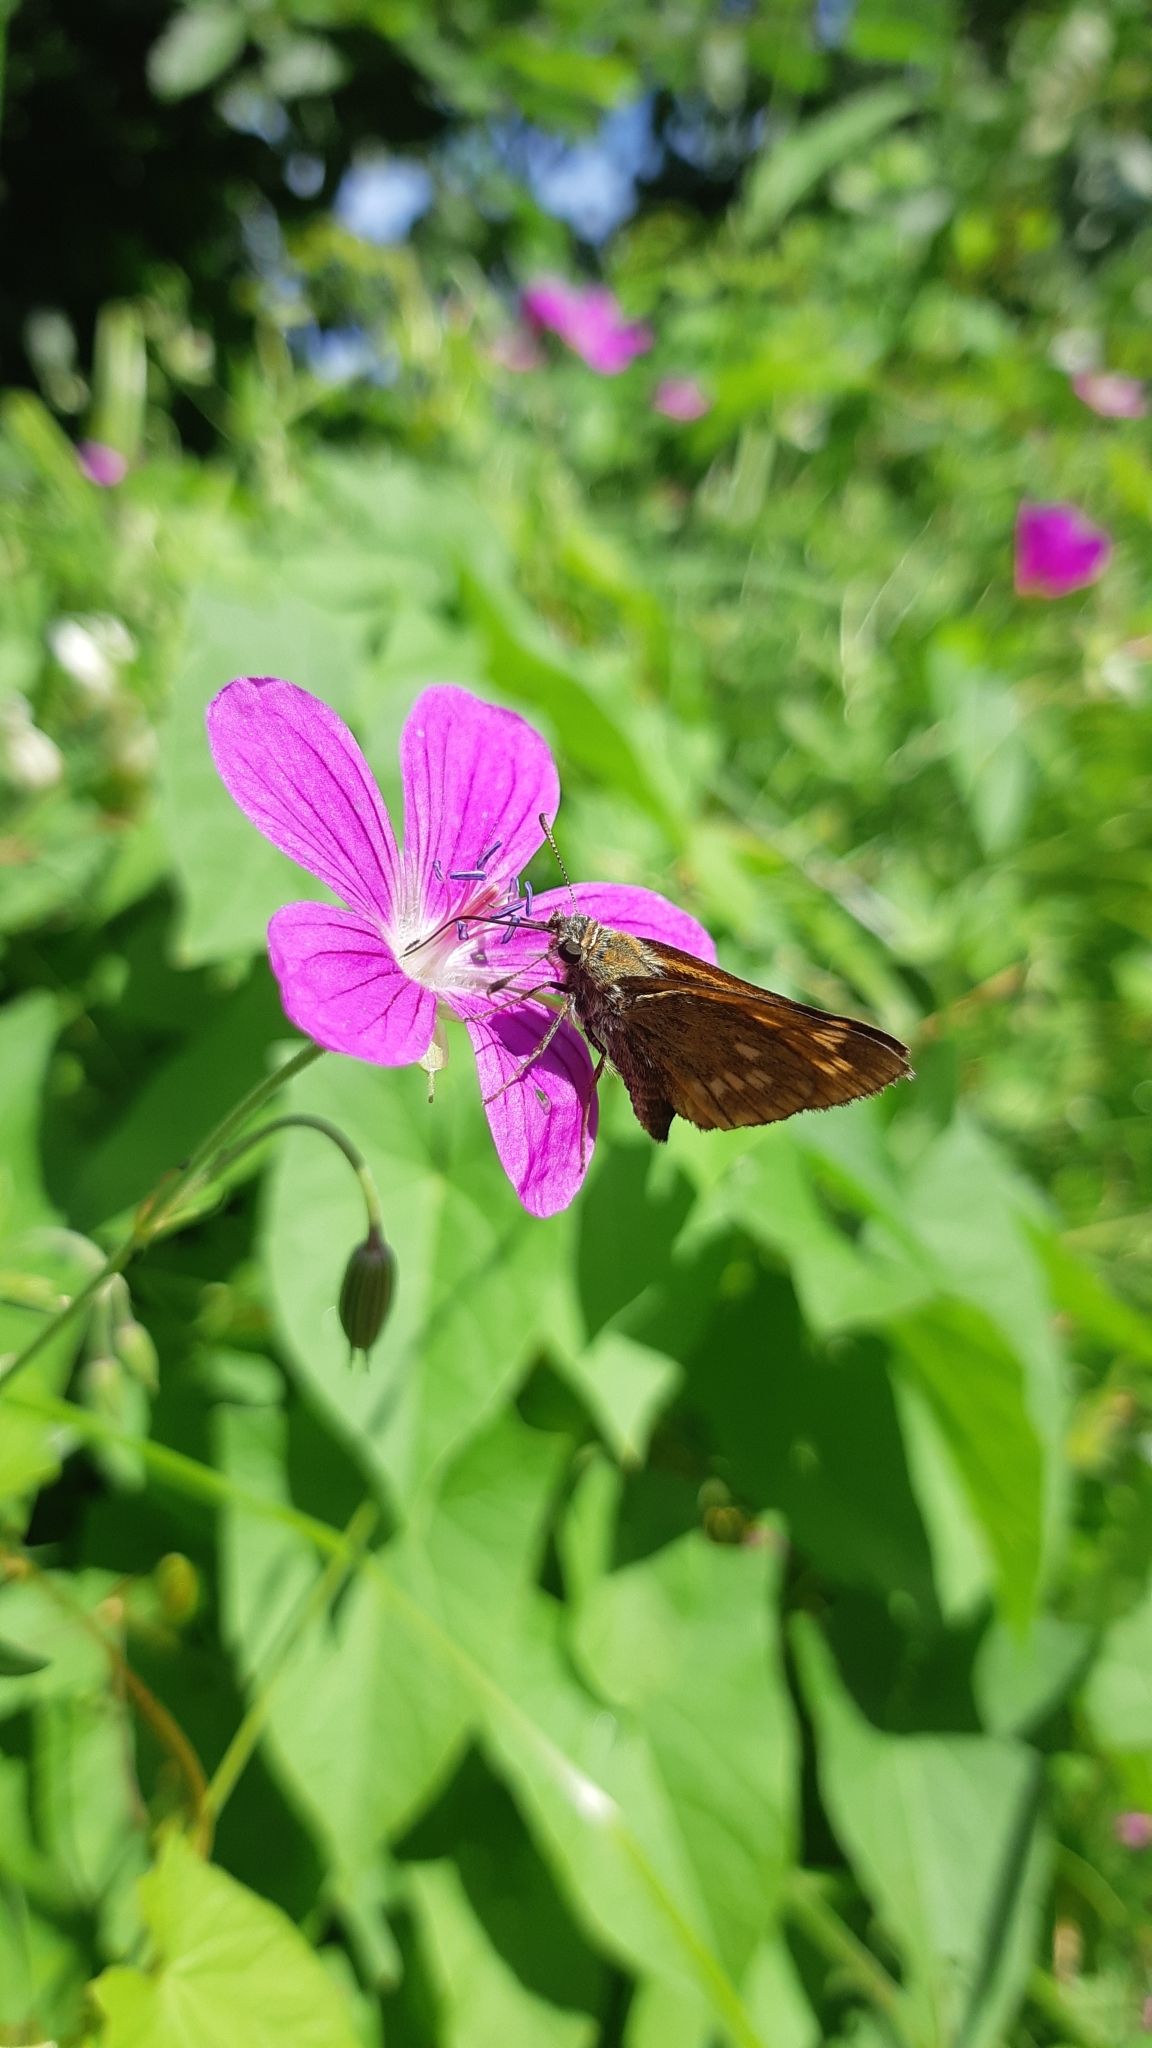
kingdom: Animalia
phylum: Arthropoda
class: Insecta
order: Lepidoptera
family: Hesperiidae
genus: Ochlodes
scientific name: Ochlodes venata
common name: Large skipper
